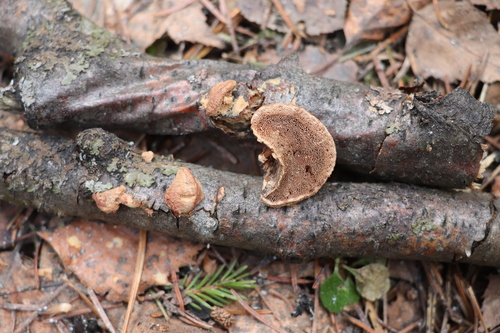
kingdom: Fungi
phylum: Basidiomycota
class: Agaricomycetes
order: Polyporales
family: Phanerochaetaceae
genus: Hapalopilus
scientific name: Hapalopilus rutilans
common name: Tender nesting polypore
